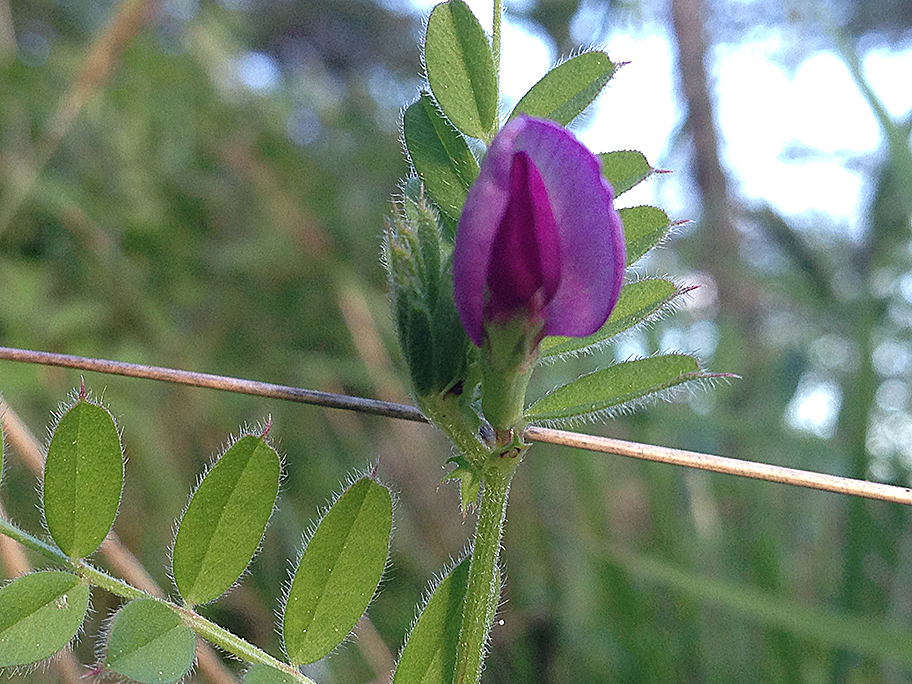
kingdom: Plantae
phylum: Tracheophyta
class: Magnoliopsida
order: Fabales
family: Fabaceae
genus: Vicia
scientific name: Vicia sativa
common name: Garden vetch
